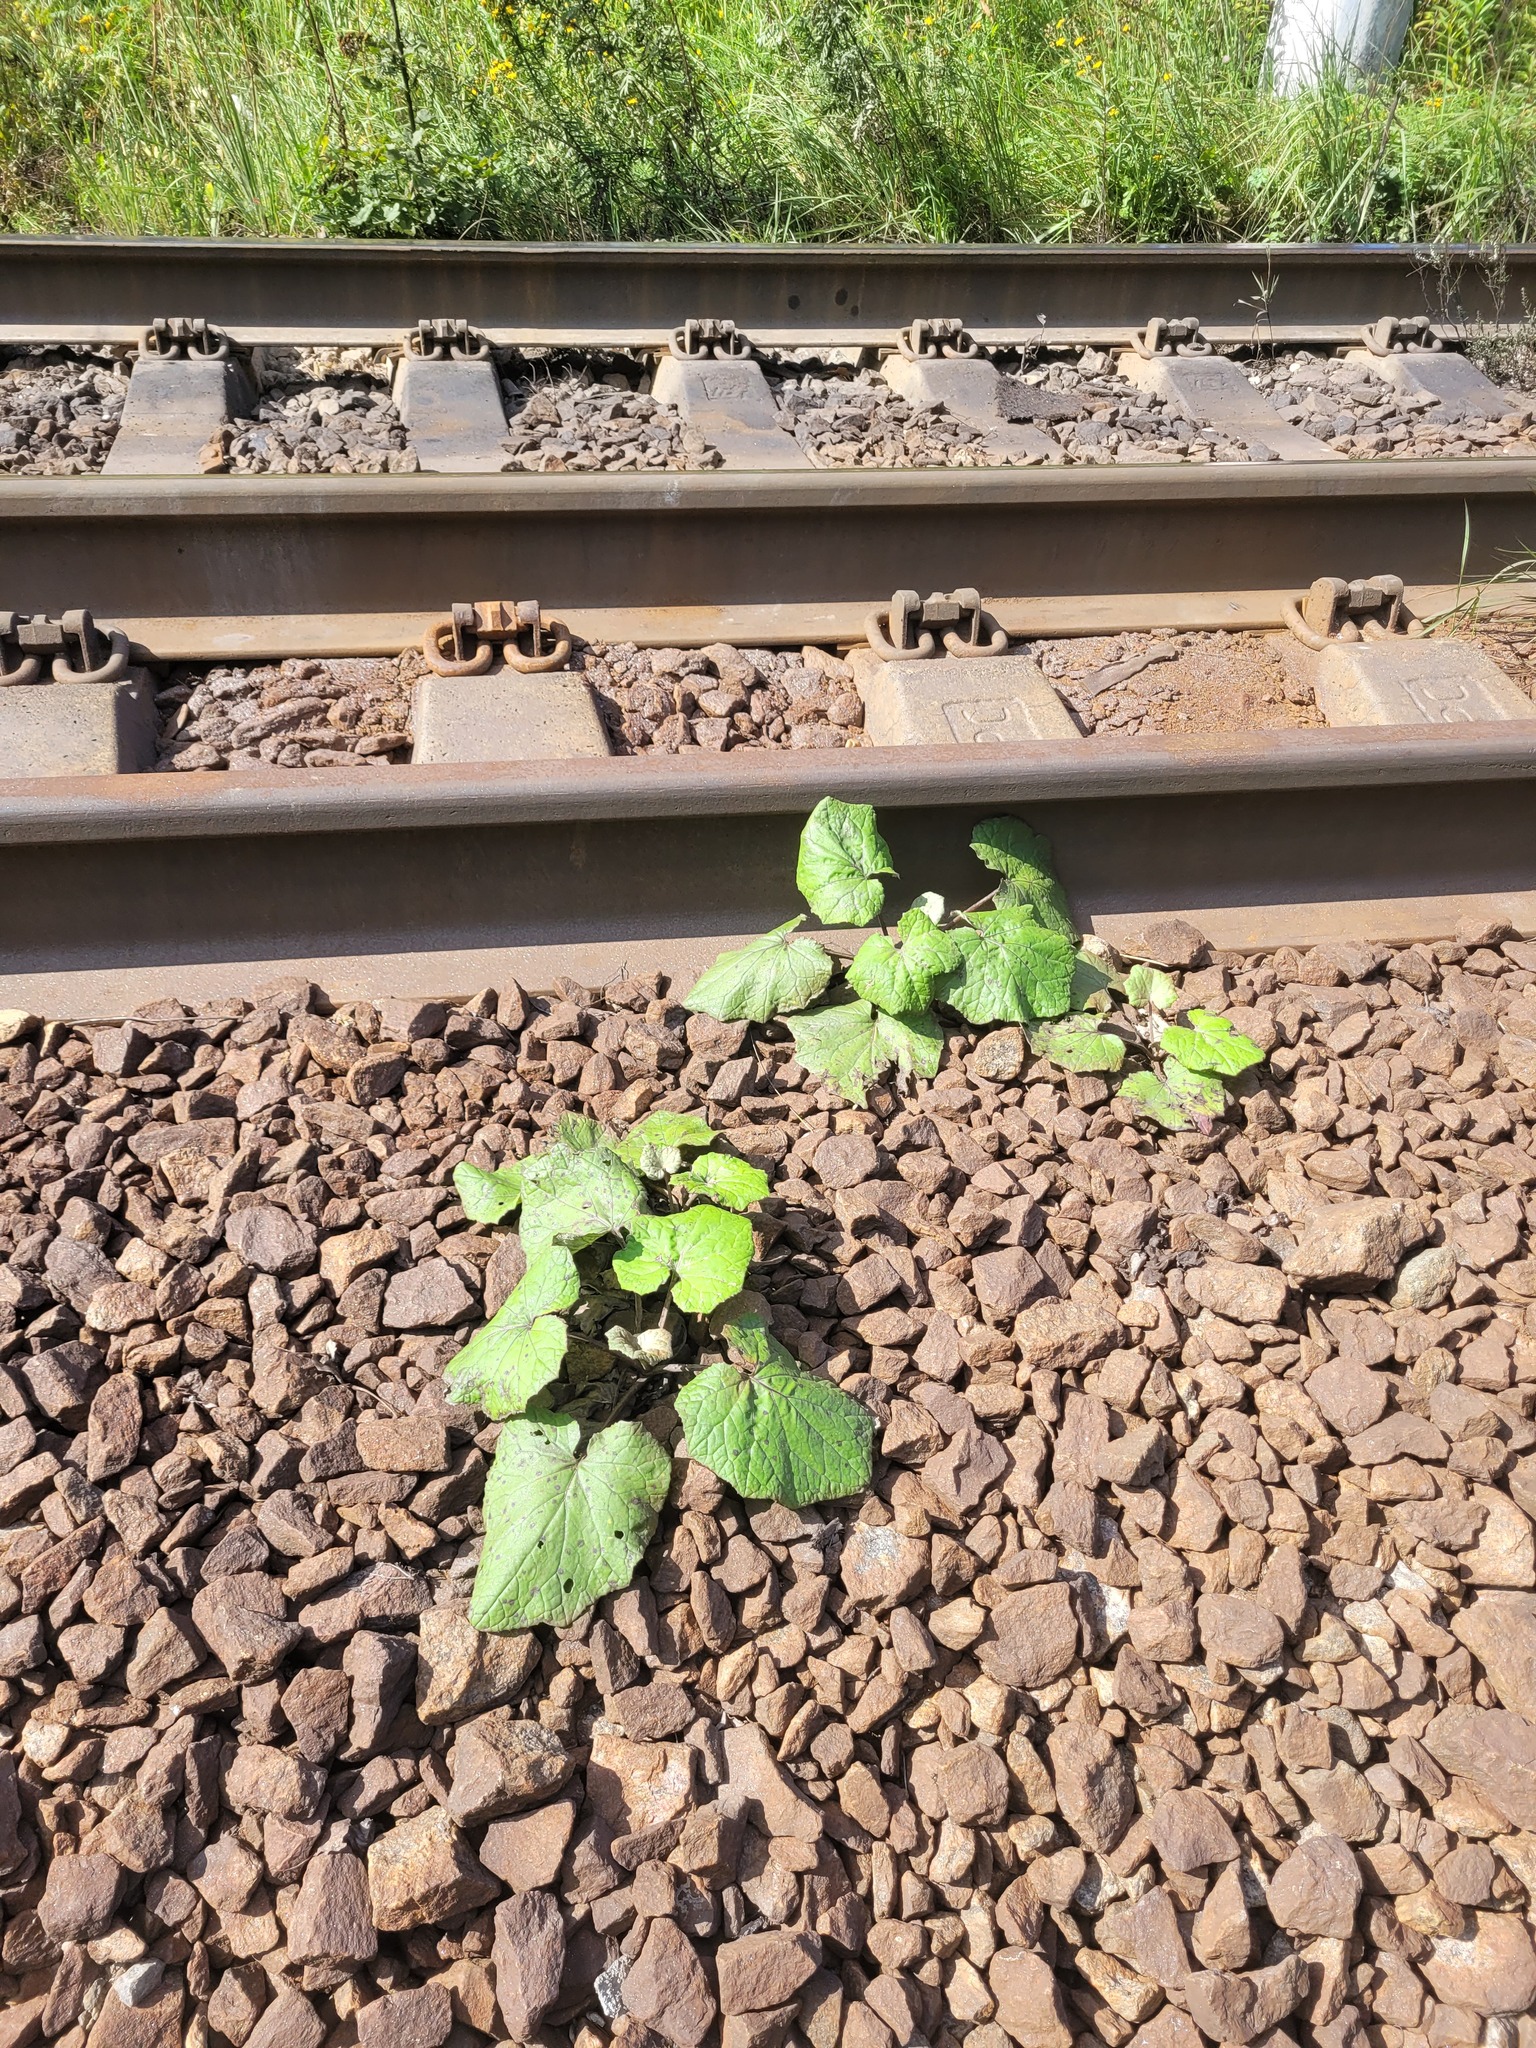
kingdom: Plantae
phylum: Tracheophyta
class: Magnoliopsida
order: Asterales
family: Asteraceae
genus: Tussilago
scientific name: Tussilago farfara
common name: Coltsfoot
